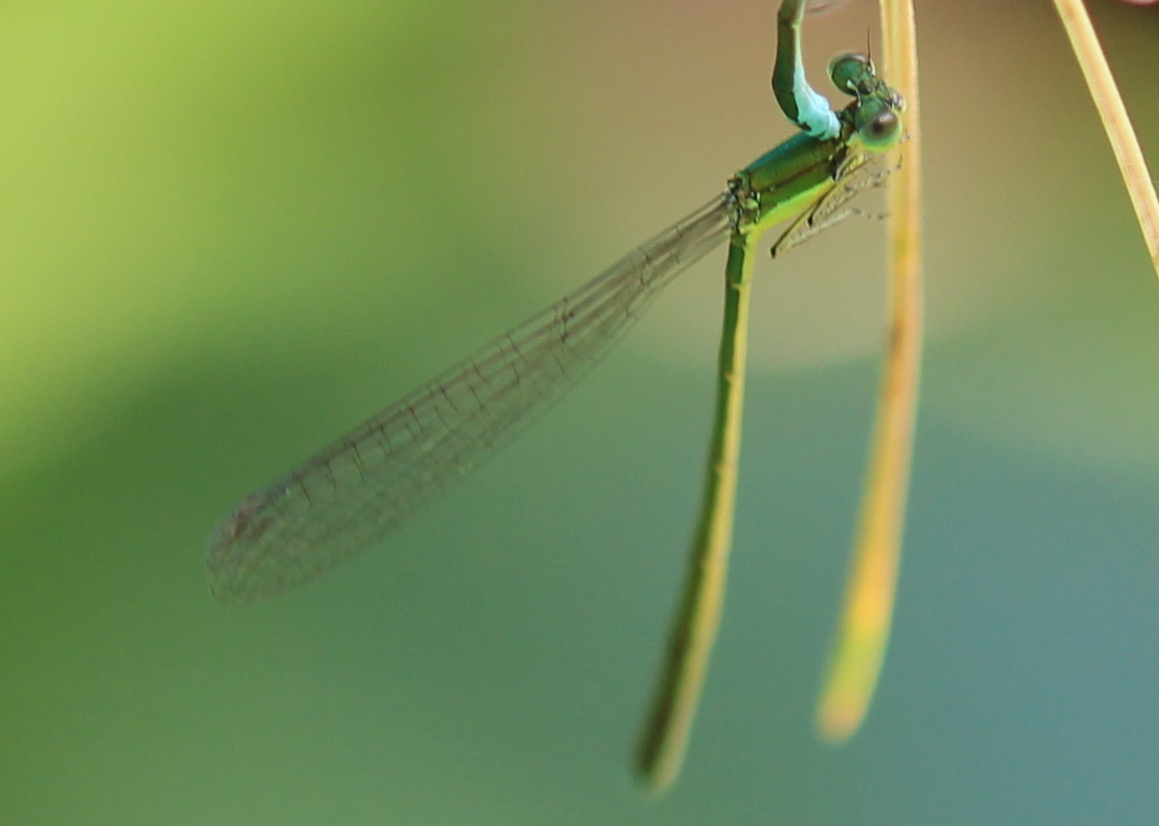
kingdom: Animalia
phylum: Arthropoda
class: Insecta
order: Odonata
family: Coenagrionidae
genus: Nehalennia
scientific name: Nehalennia irene
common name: Sedge sprite
